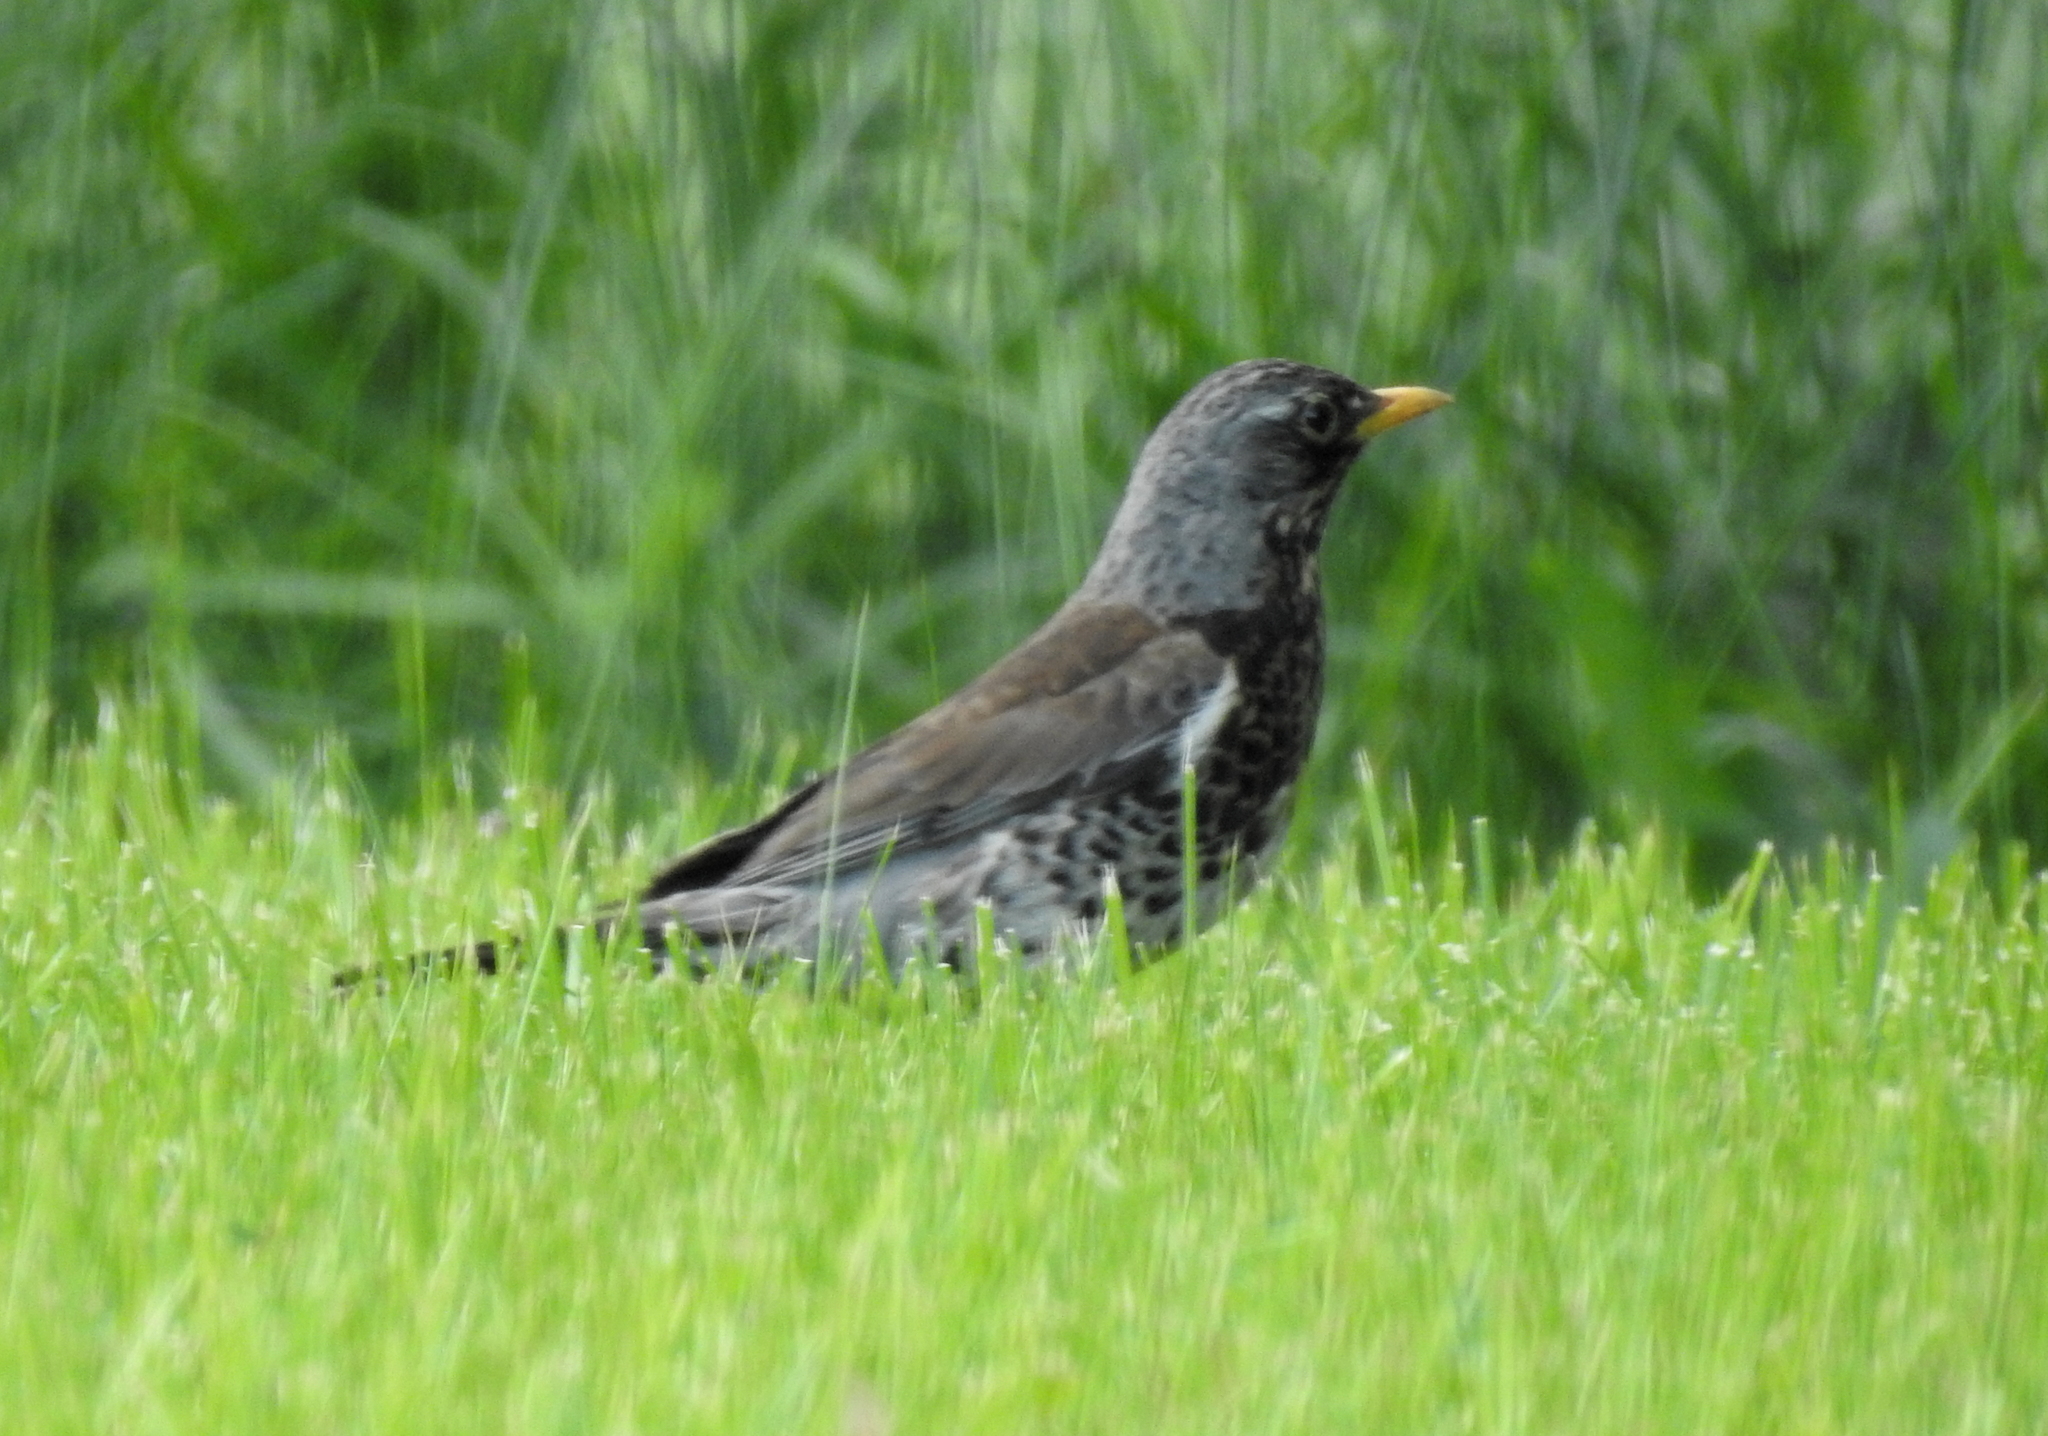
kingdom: Animalia
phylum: Chordata
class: Aves
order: Passeriformes
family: Turdidae
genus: Turdus
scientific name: Turdus pilaris
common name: Fieldfare
